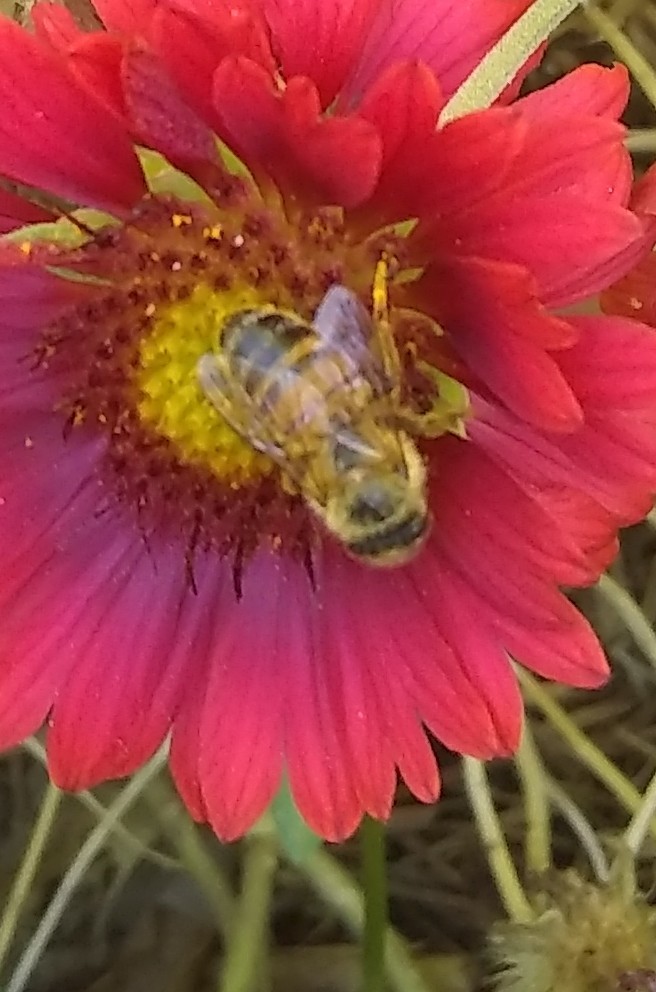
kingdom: Animalia
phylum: Arthropoda
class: Insecta
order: Hymenoptera
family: Apidae
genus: Apis
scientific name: Apis mellifera
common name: Honey bee
